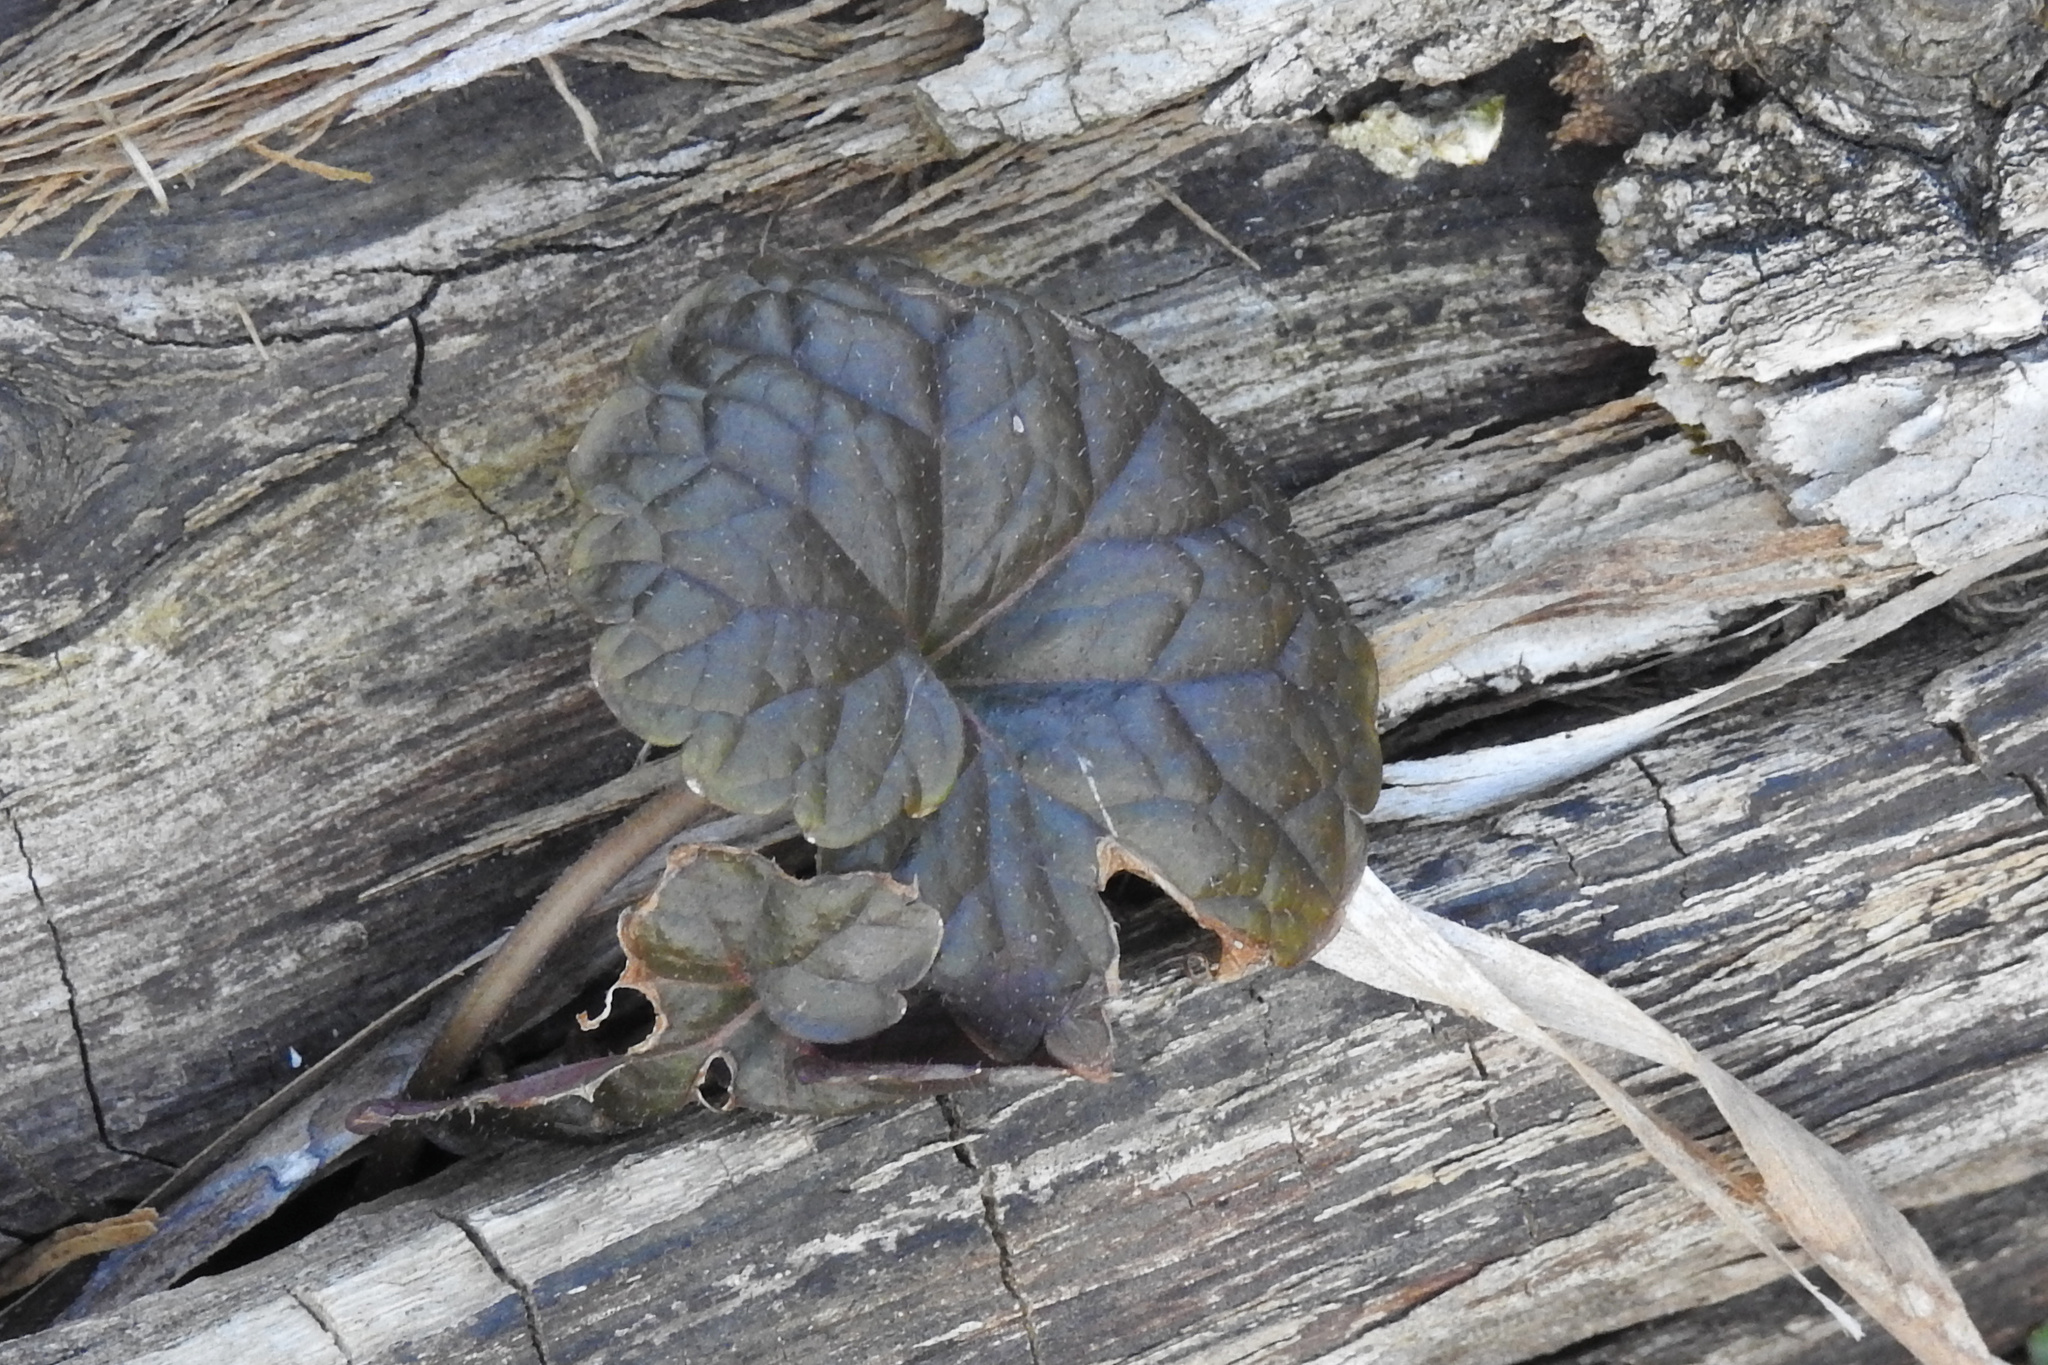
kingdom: Plantae
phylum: Tracheophyta
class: Magnoliopsida
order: Lamiales
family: Lamiaceae
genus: Glechoma
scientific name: Glechoma hederacea
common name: Ground ivy
